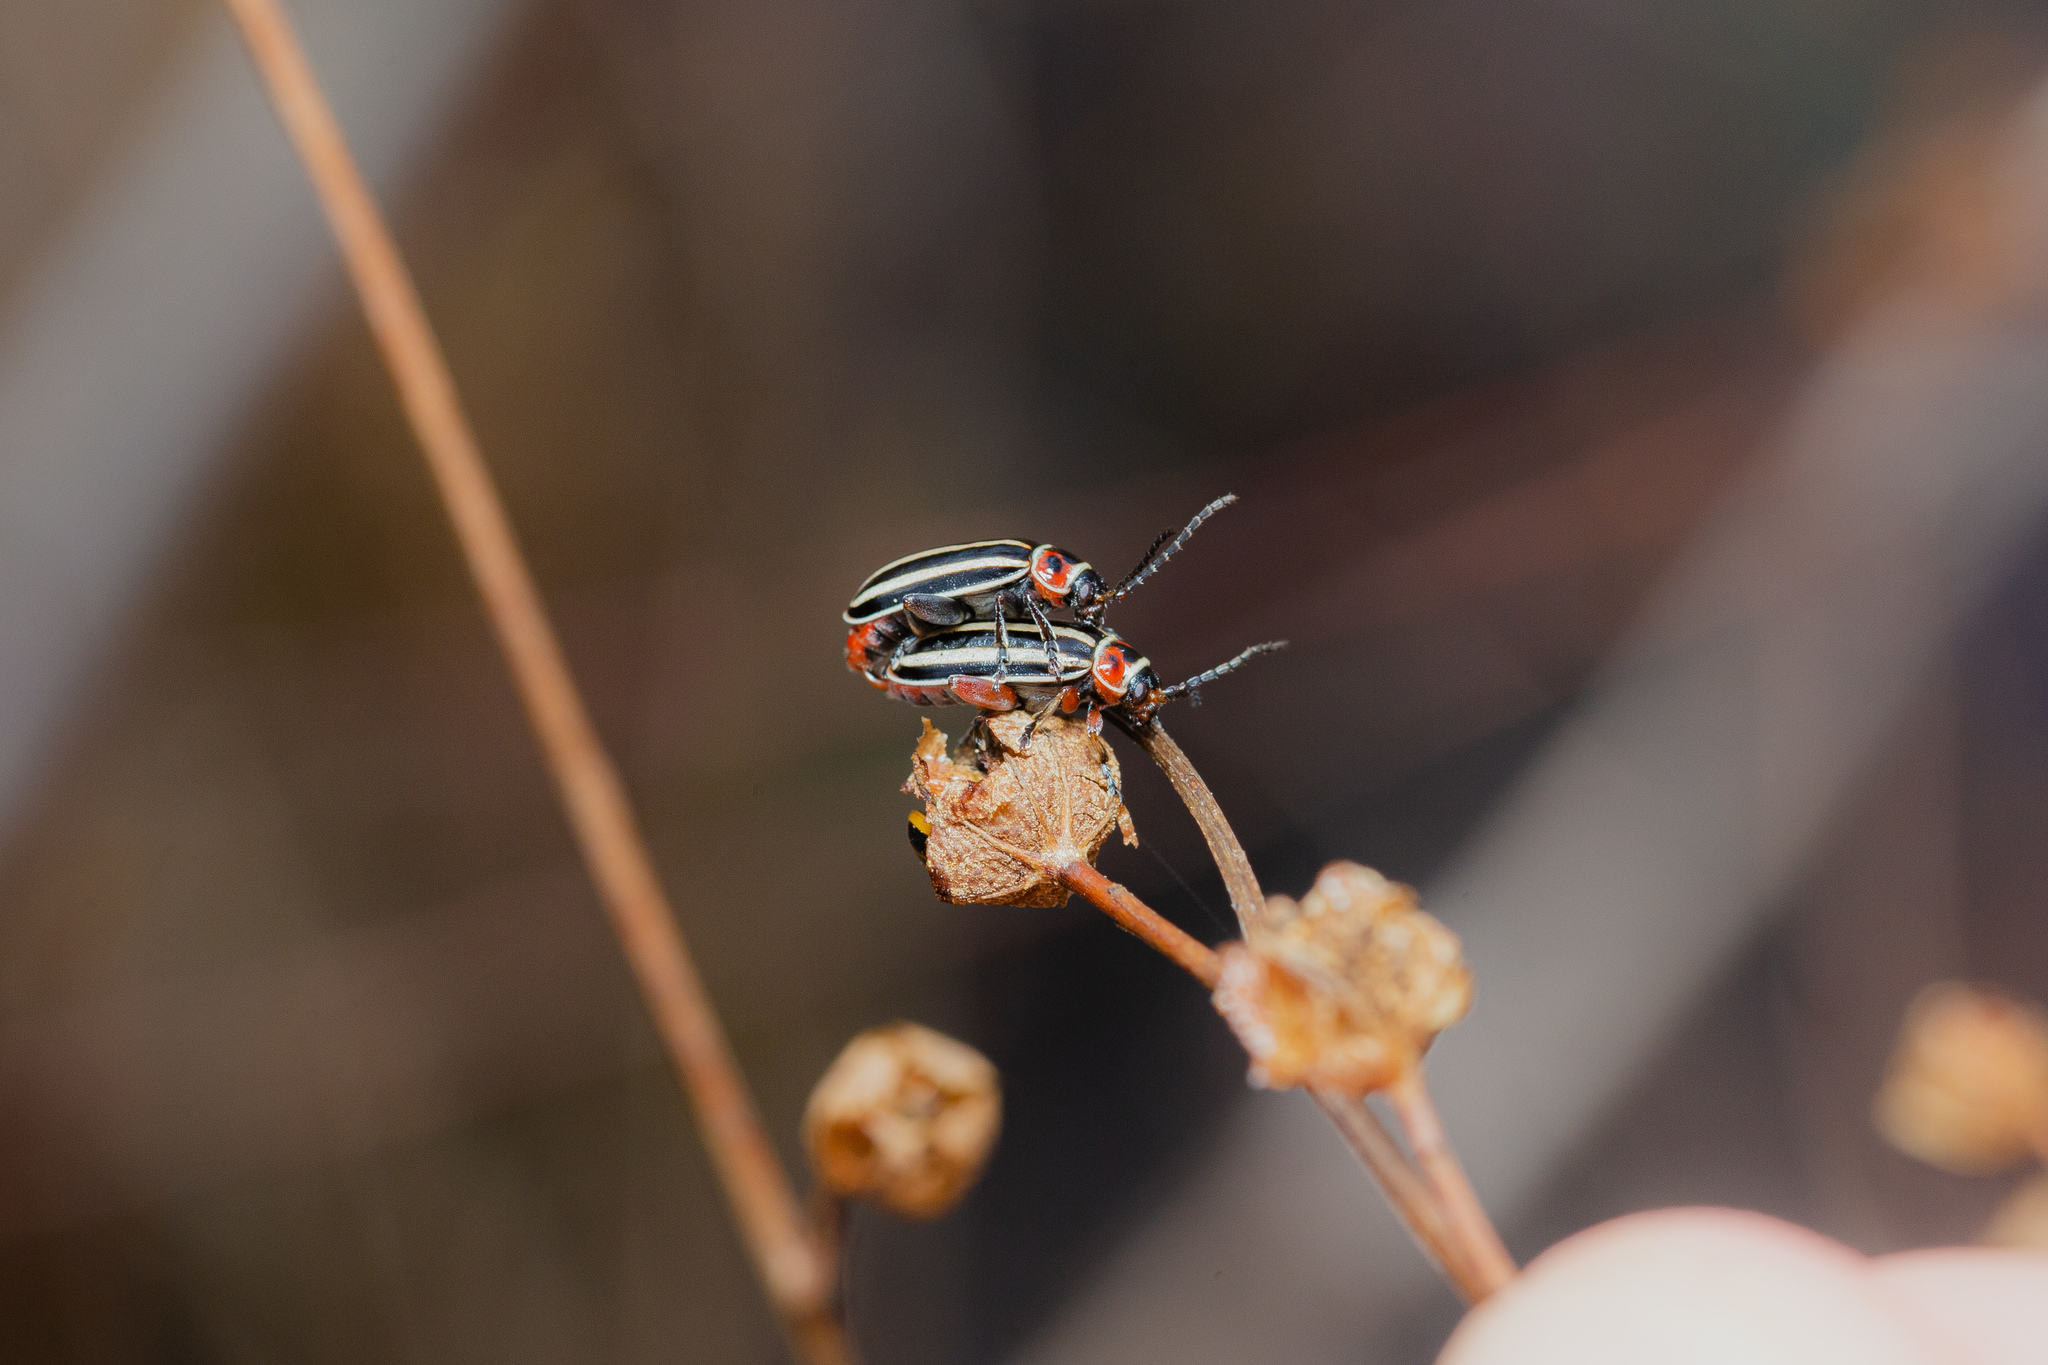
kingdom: Animalia
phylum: Arthropoda
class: Insecta
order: Coleoptera
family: Chrysomelidae
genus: Disonycha
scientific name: Disonycha uniguttata
